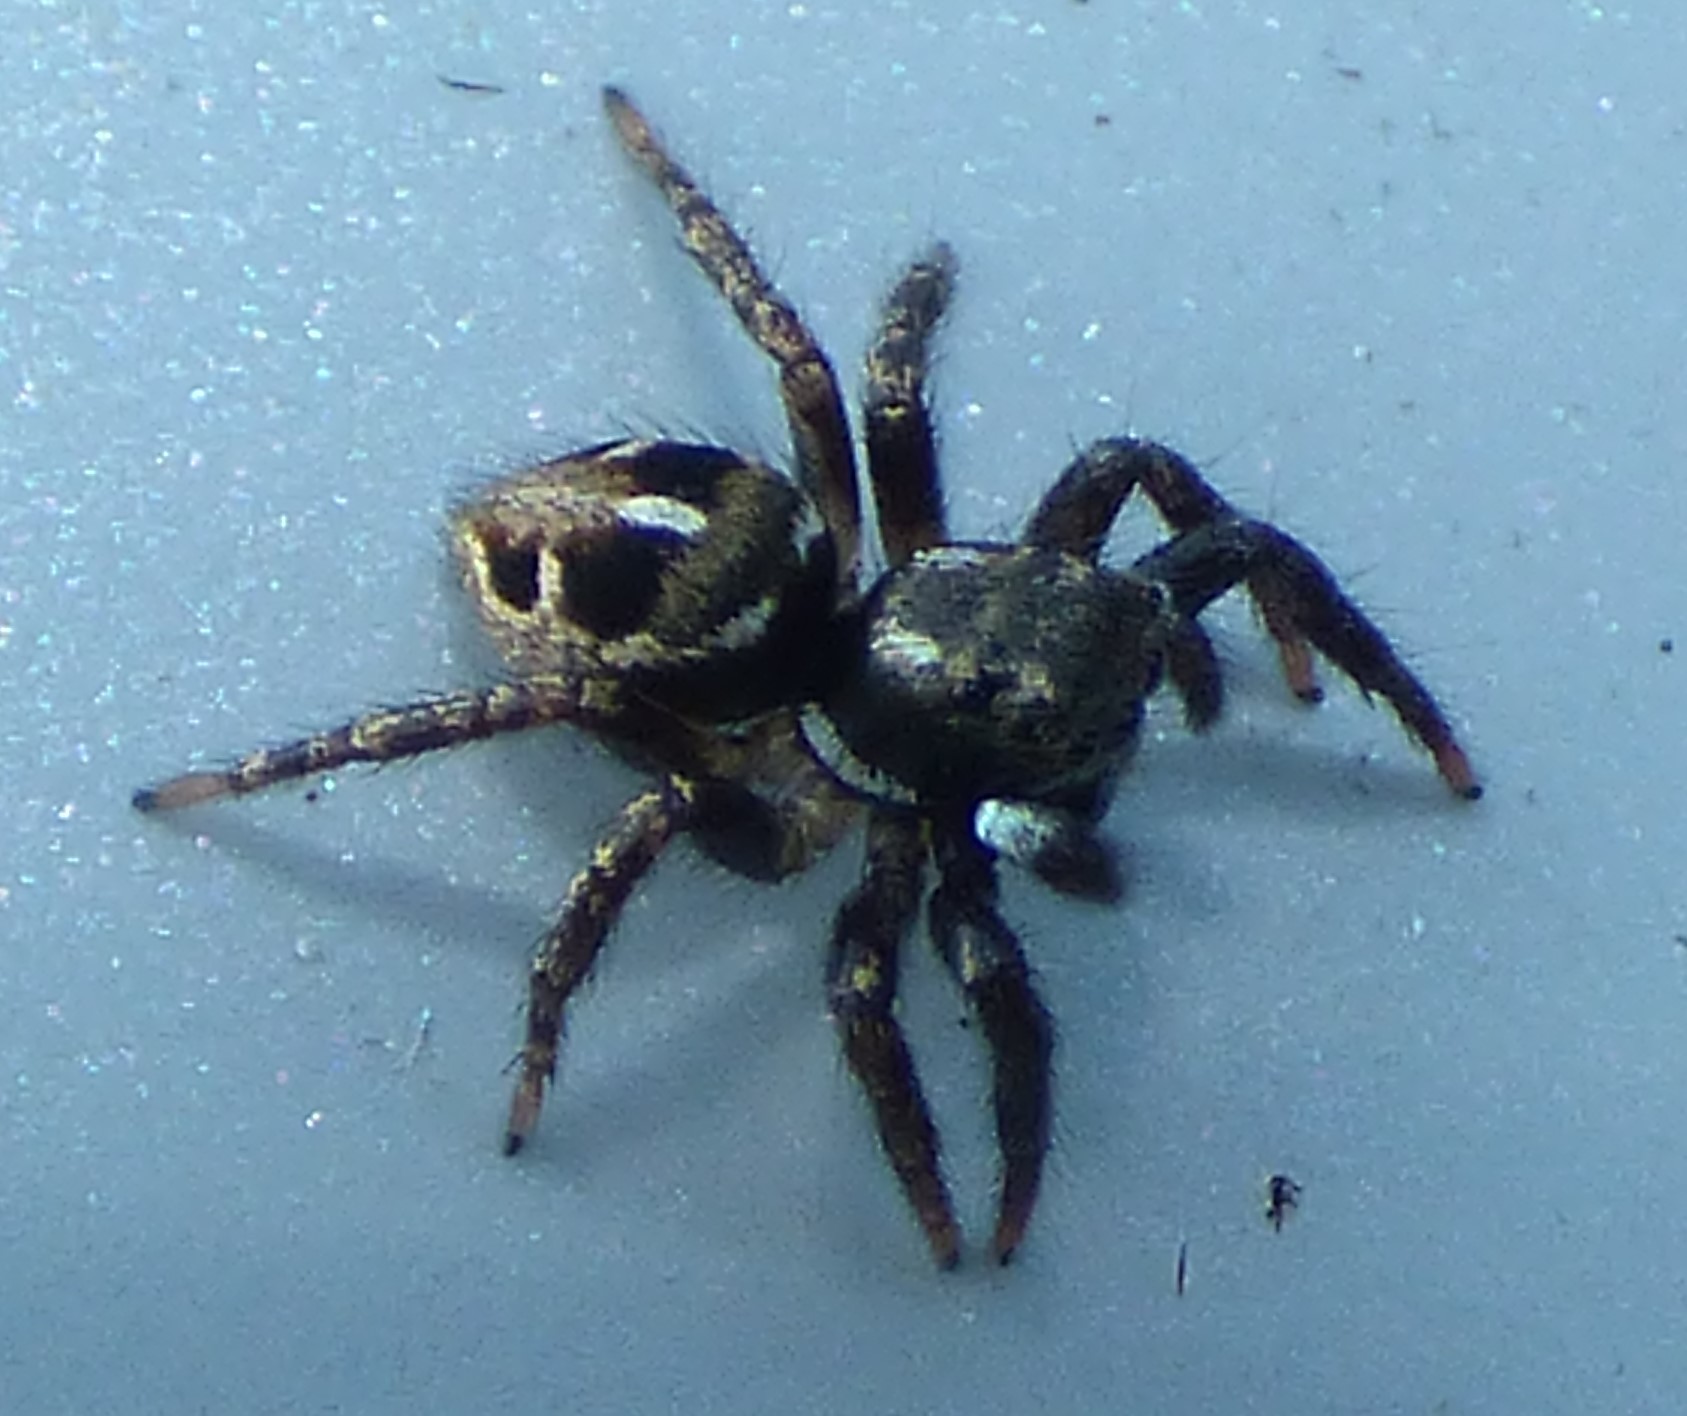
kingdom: Animalia
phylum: Arthropoda
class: Arachnida
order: Araneae
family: Salticidae
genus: Anasaitis
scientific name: Anasaitis canosa
